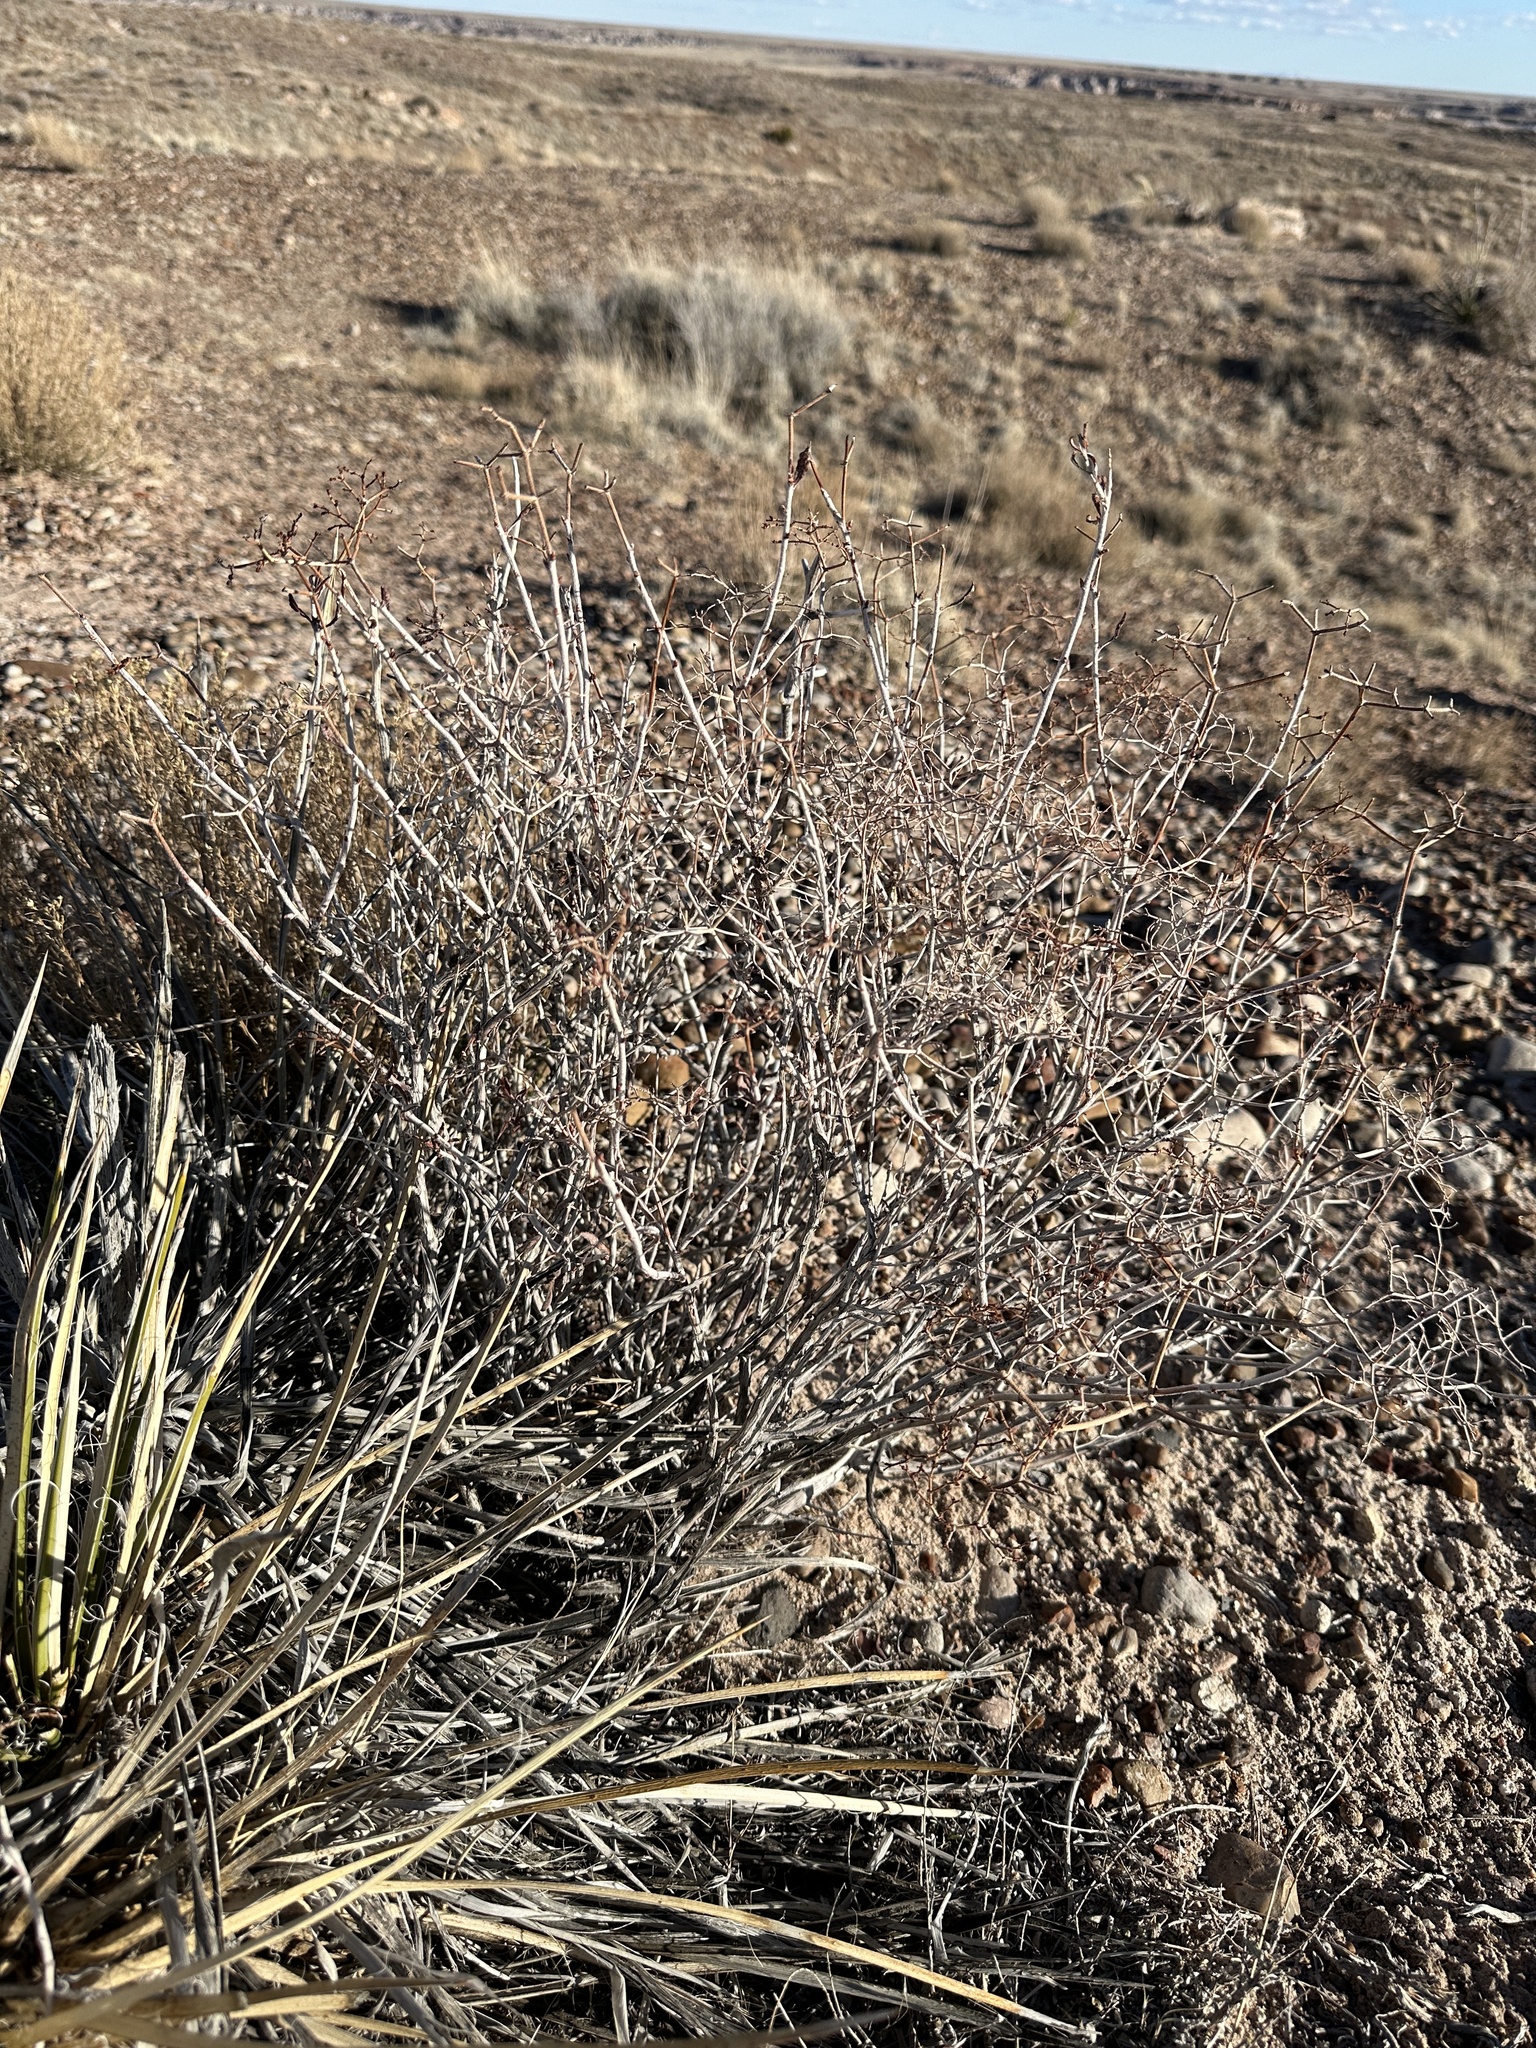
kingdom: Plantae
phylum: Tracheophyta
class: Magnoliopsida
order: Caryophyllales
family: Polygonaceae
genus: Eriogonum
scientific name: Eriogonum corymbosum
